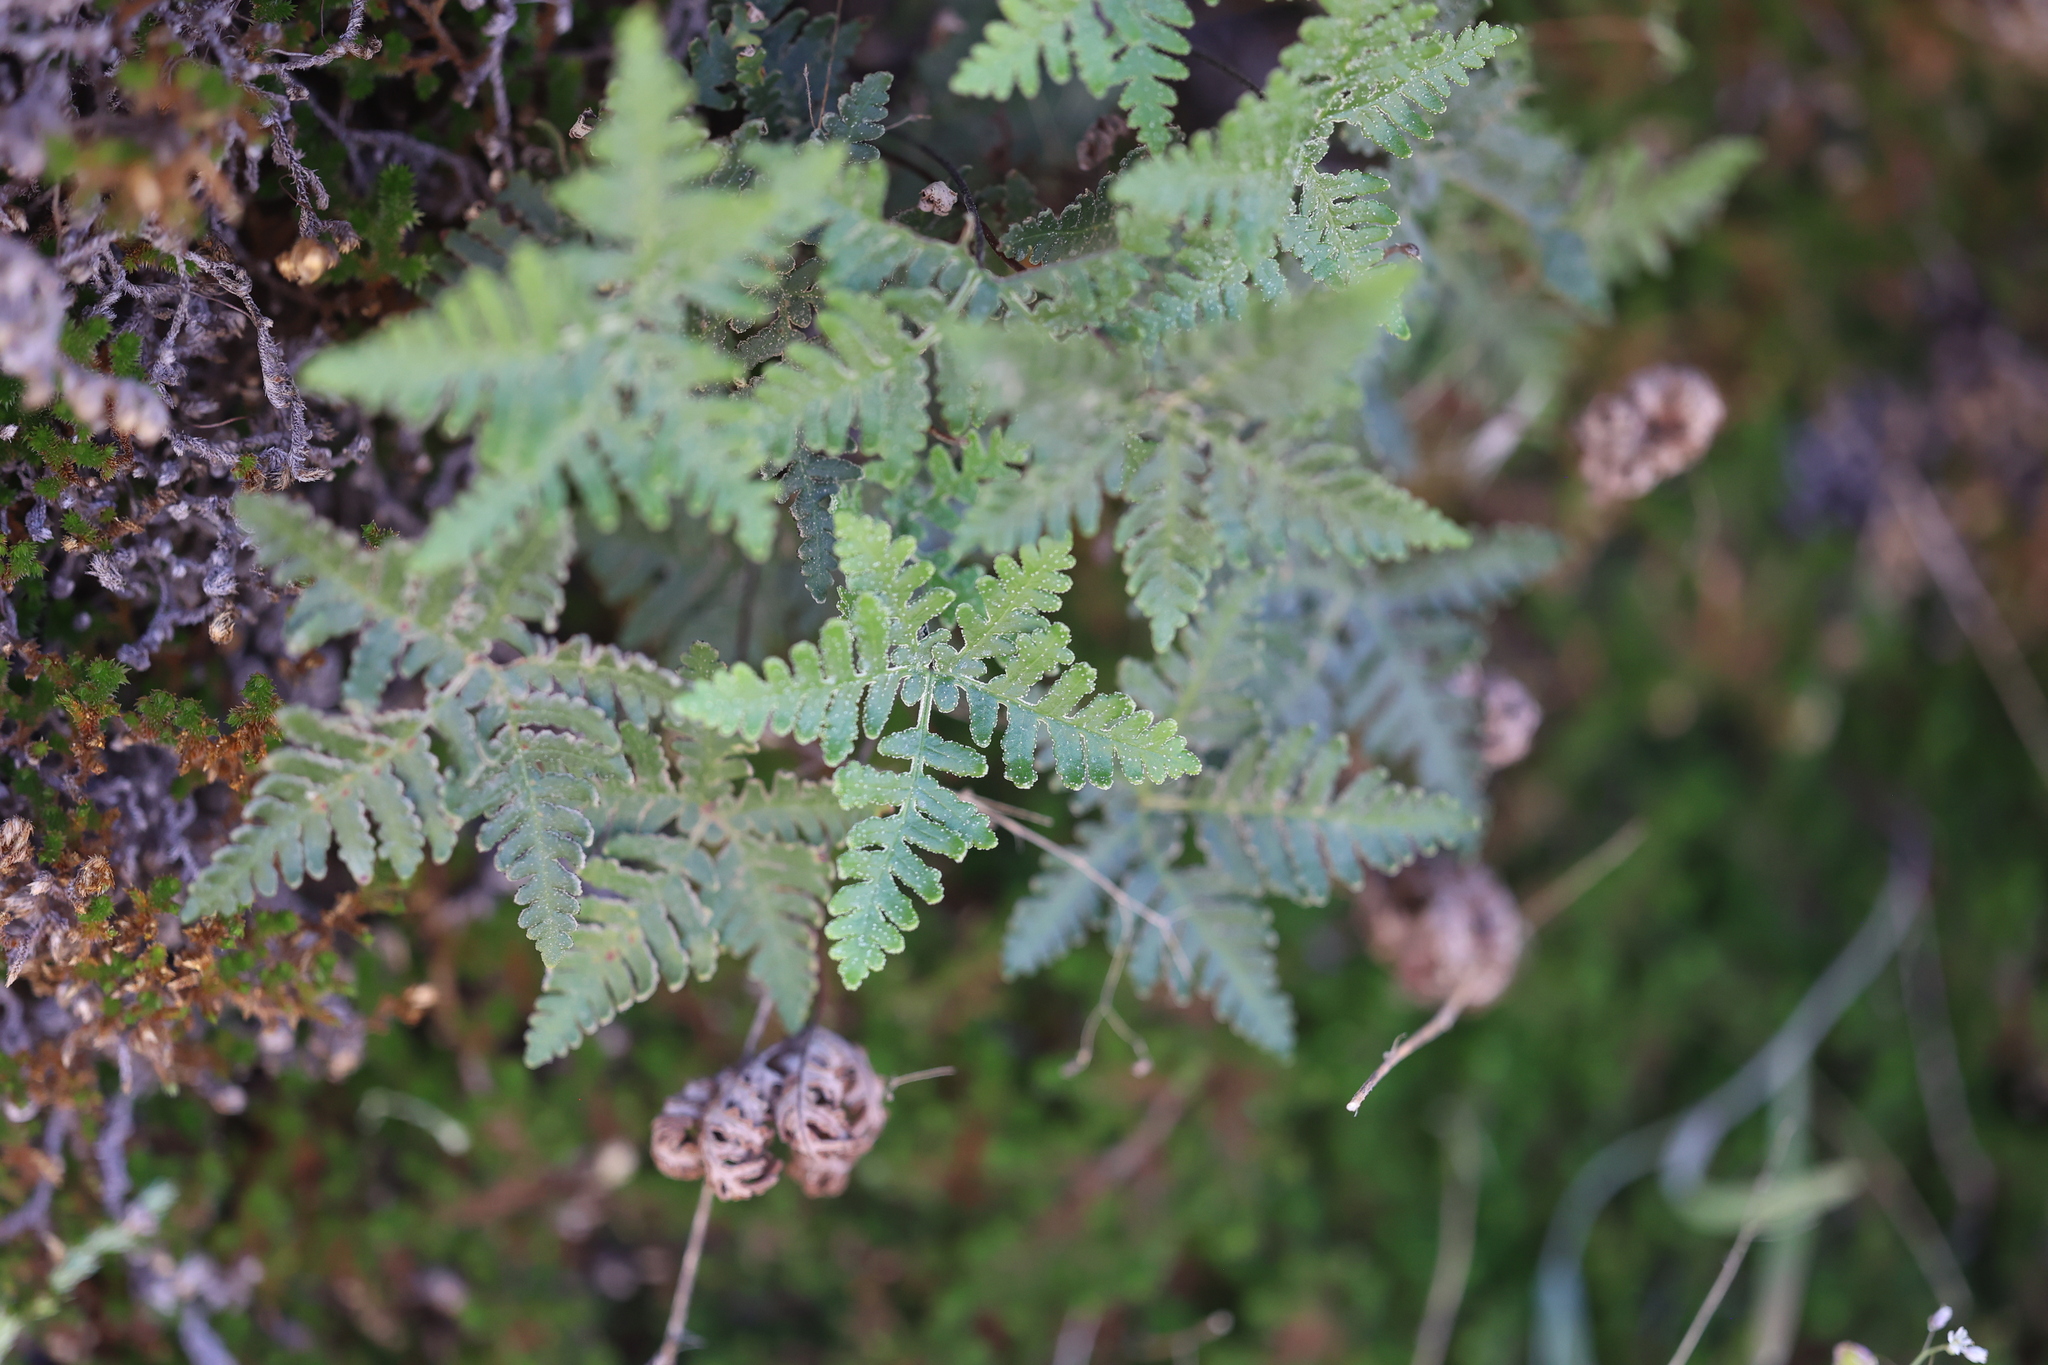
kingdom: Plantae
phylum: Tracheophyta
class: Polypodiopsida
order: Polypodiales
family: Pteridaceae
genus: Notholaena
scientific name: Notholaena standleyi
